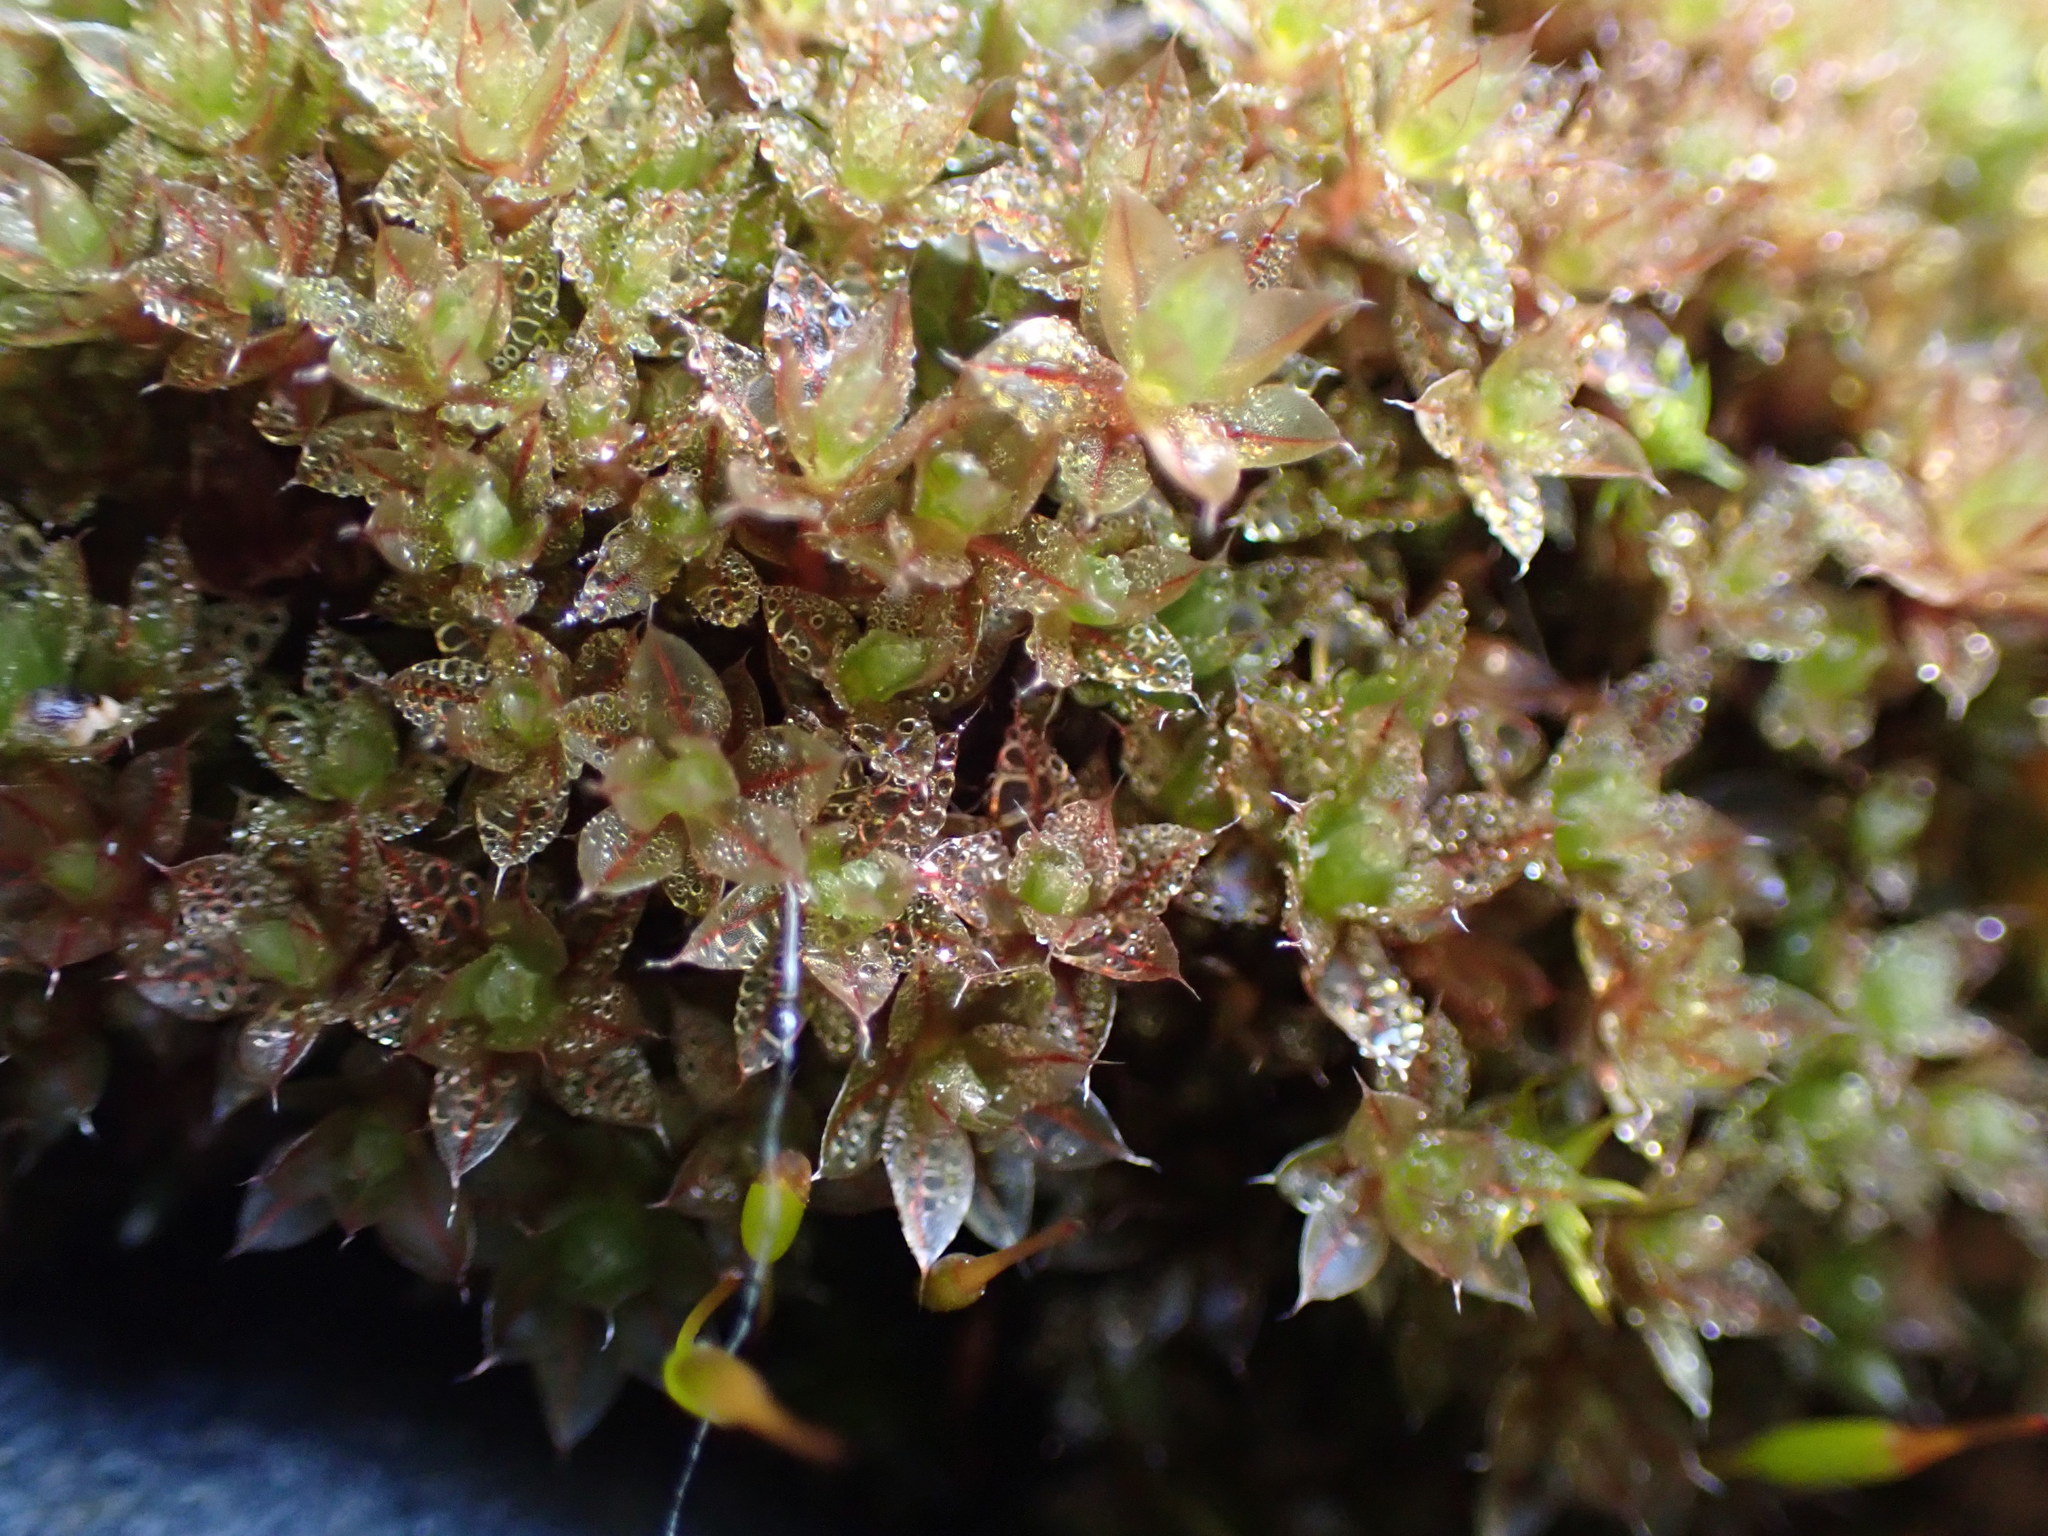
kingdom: Plantae
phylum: Bryophyta
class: Bryopsida
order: Bryales
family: Bryaceae
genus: Rosulabryum
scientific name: Rosulabryum capillare
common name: Capillary thread-moss
